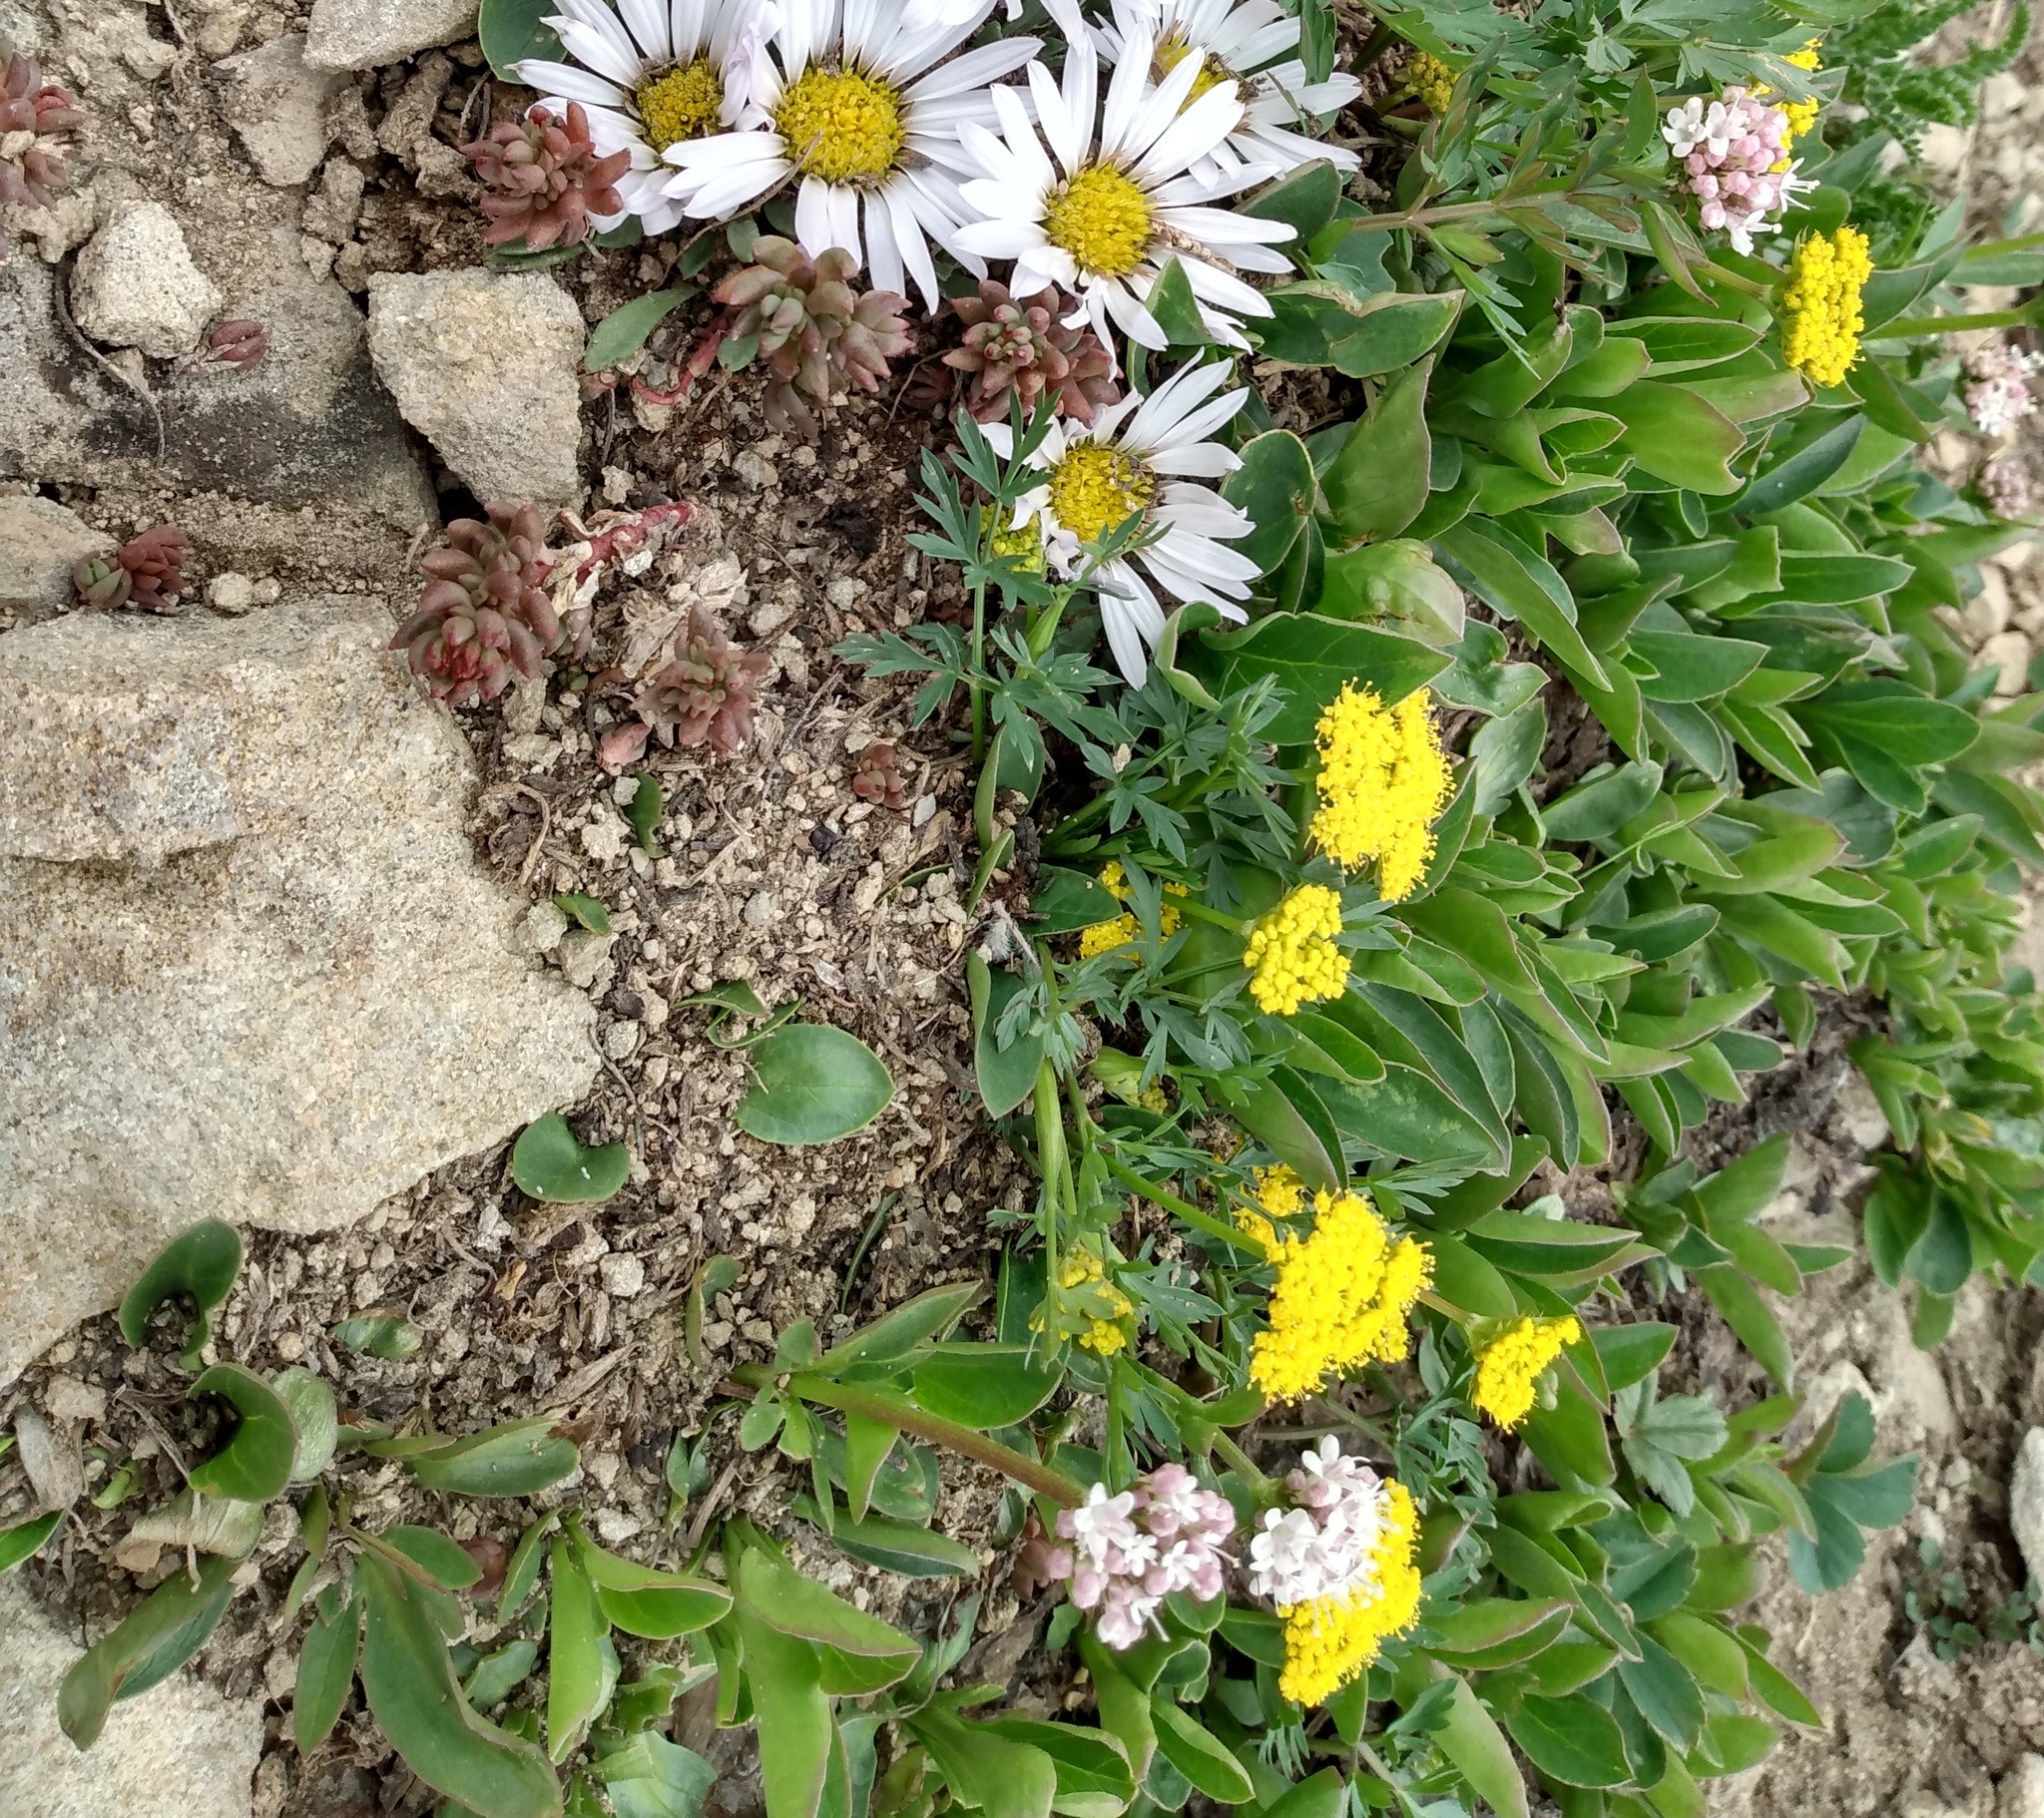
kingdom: Plantae
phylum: Tracheophyta
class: Magnoliopsida
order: Dipsacales
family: Caprifoliaceae
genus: Valeriana
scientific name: Valeriana acutiloba
